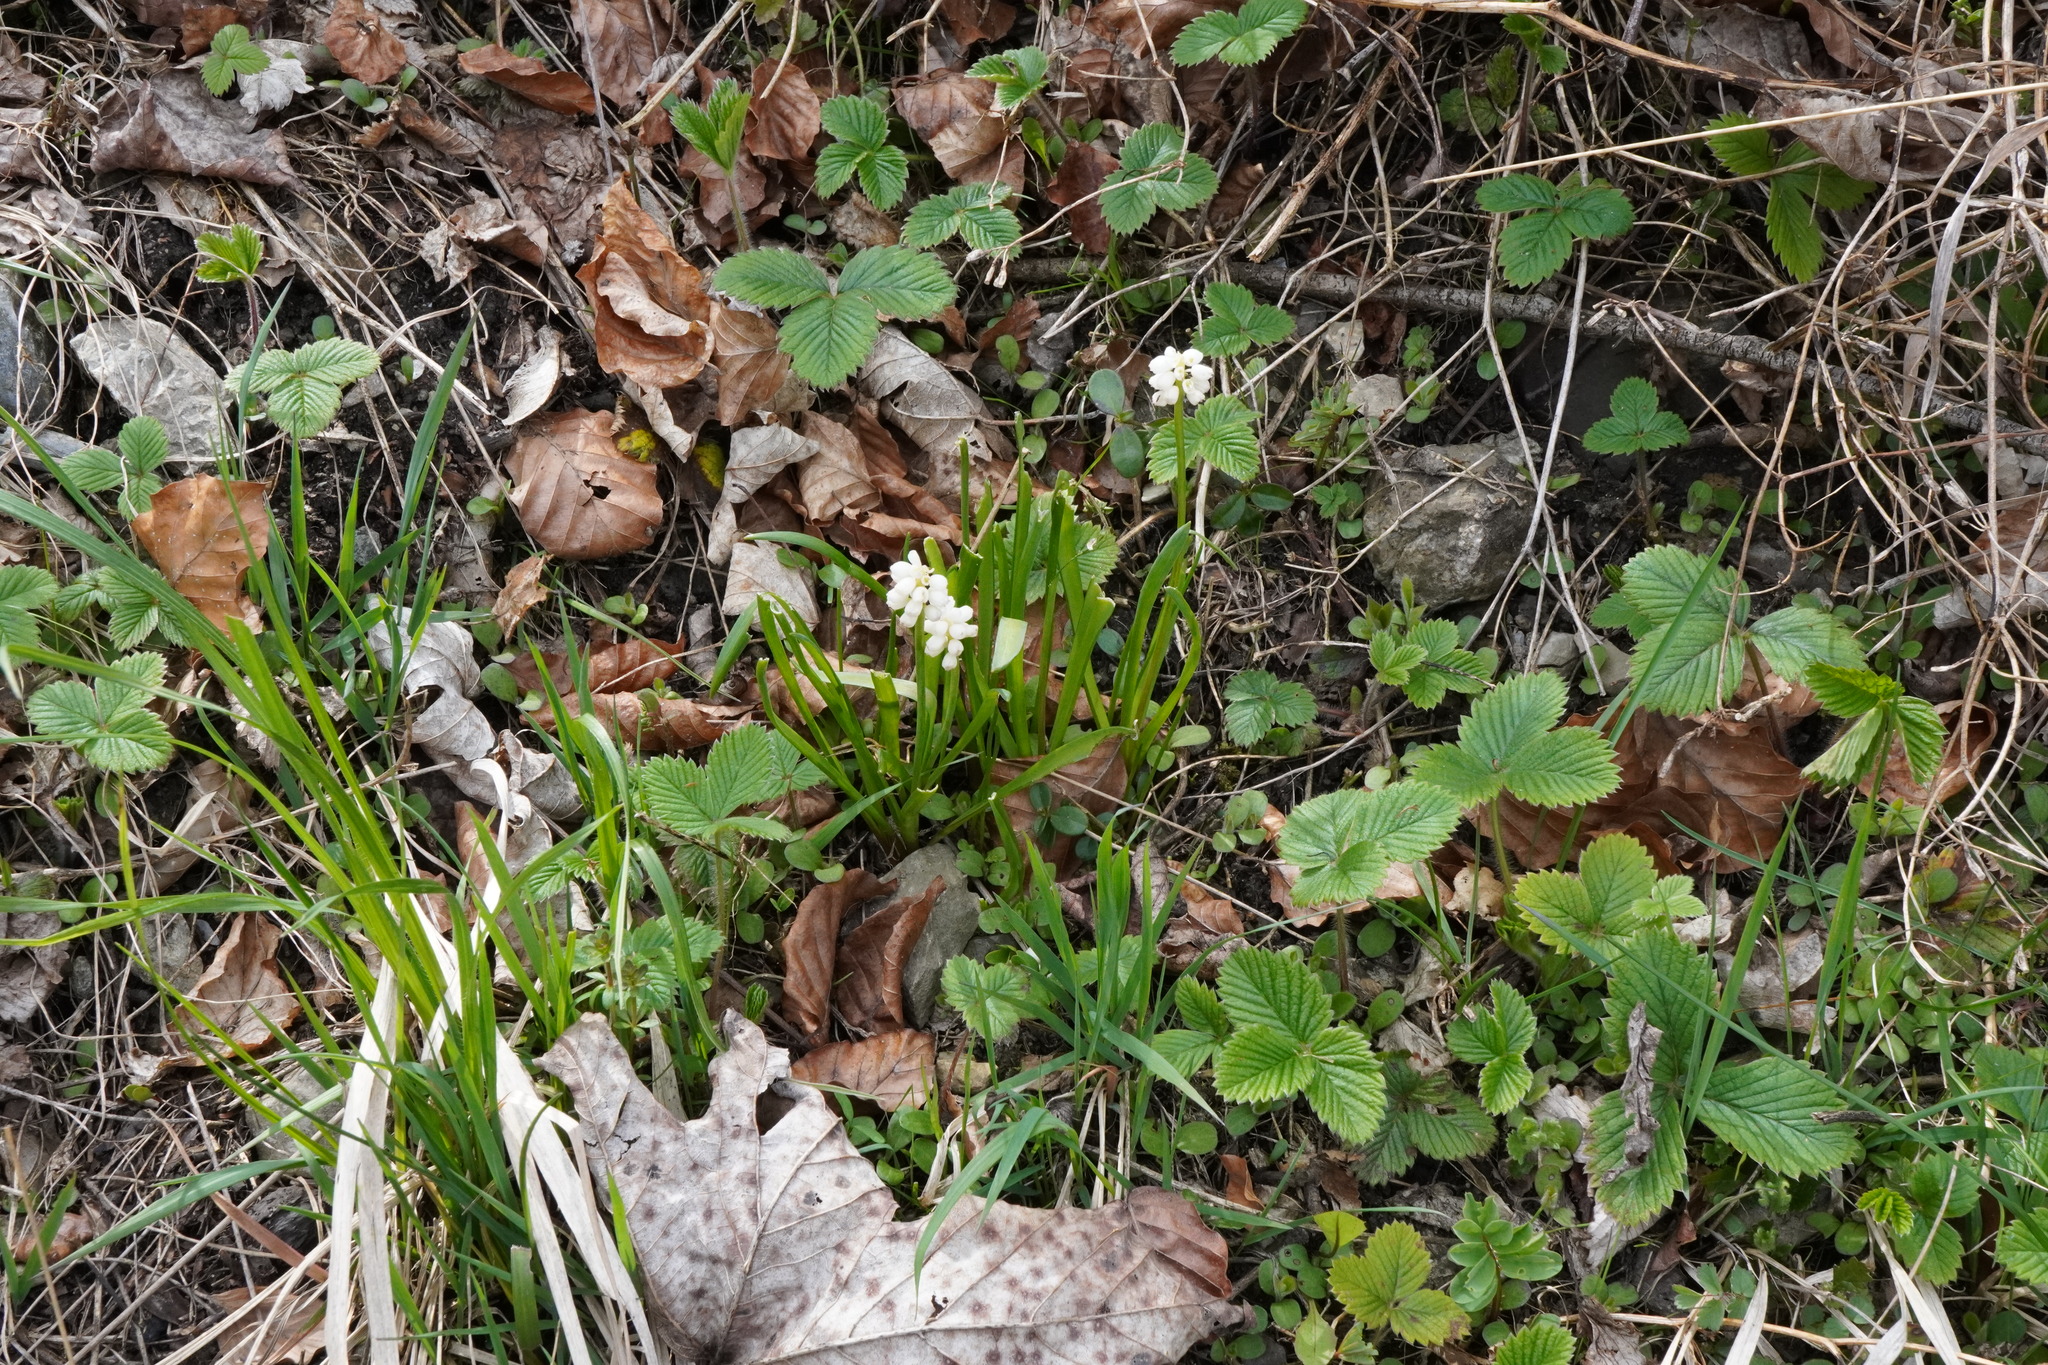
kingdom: Plantae
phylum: Tracheophyta
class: Liliopsida
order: Asparagales
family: Asparagaceae
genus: Muscari
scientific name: Muscari botryoides
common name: Compact grape-hyacinth
